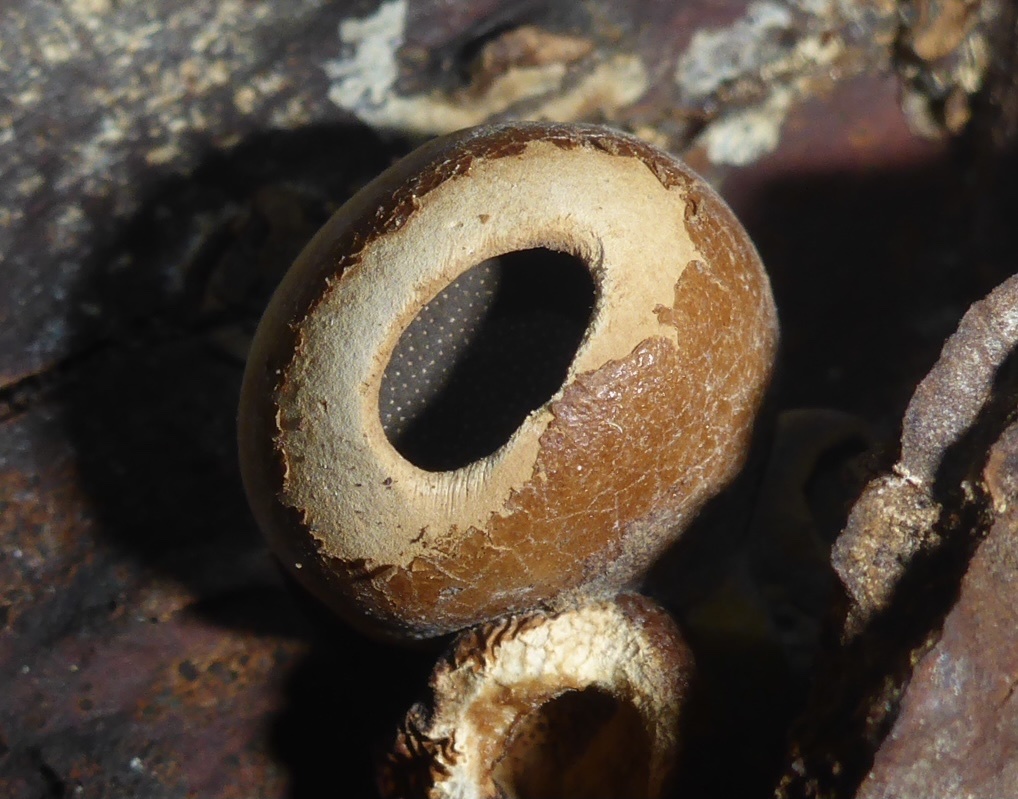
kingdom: Fungi
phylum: Basidiomycota
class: Agaricomycetes
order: Polyporales
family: Polyporaceae
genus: Cryptoporus
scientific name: Cryptoporus volvatus
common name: Veiled polypore
